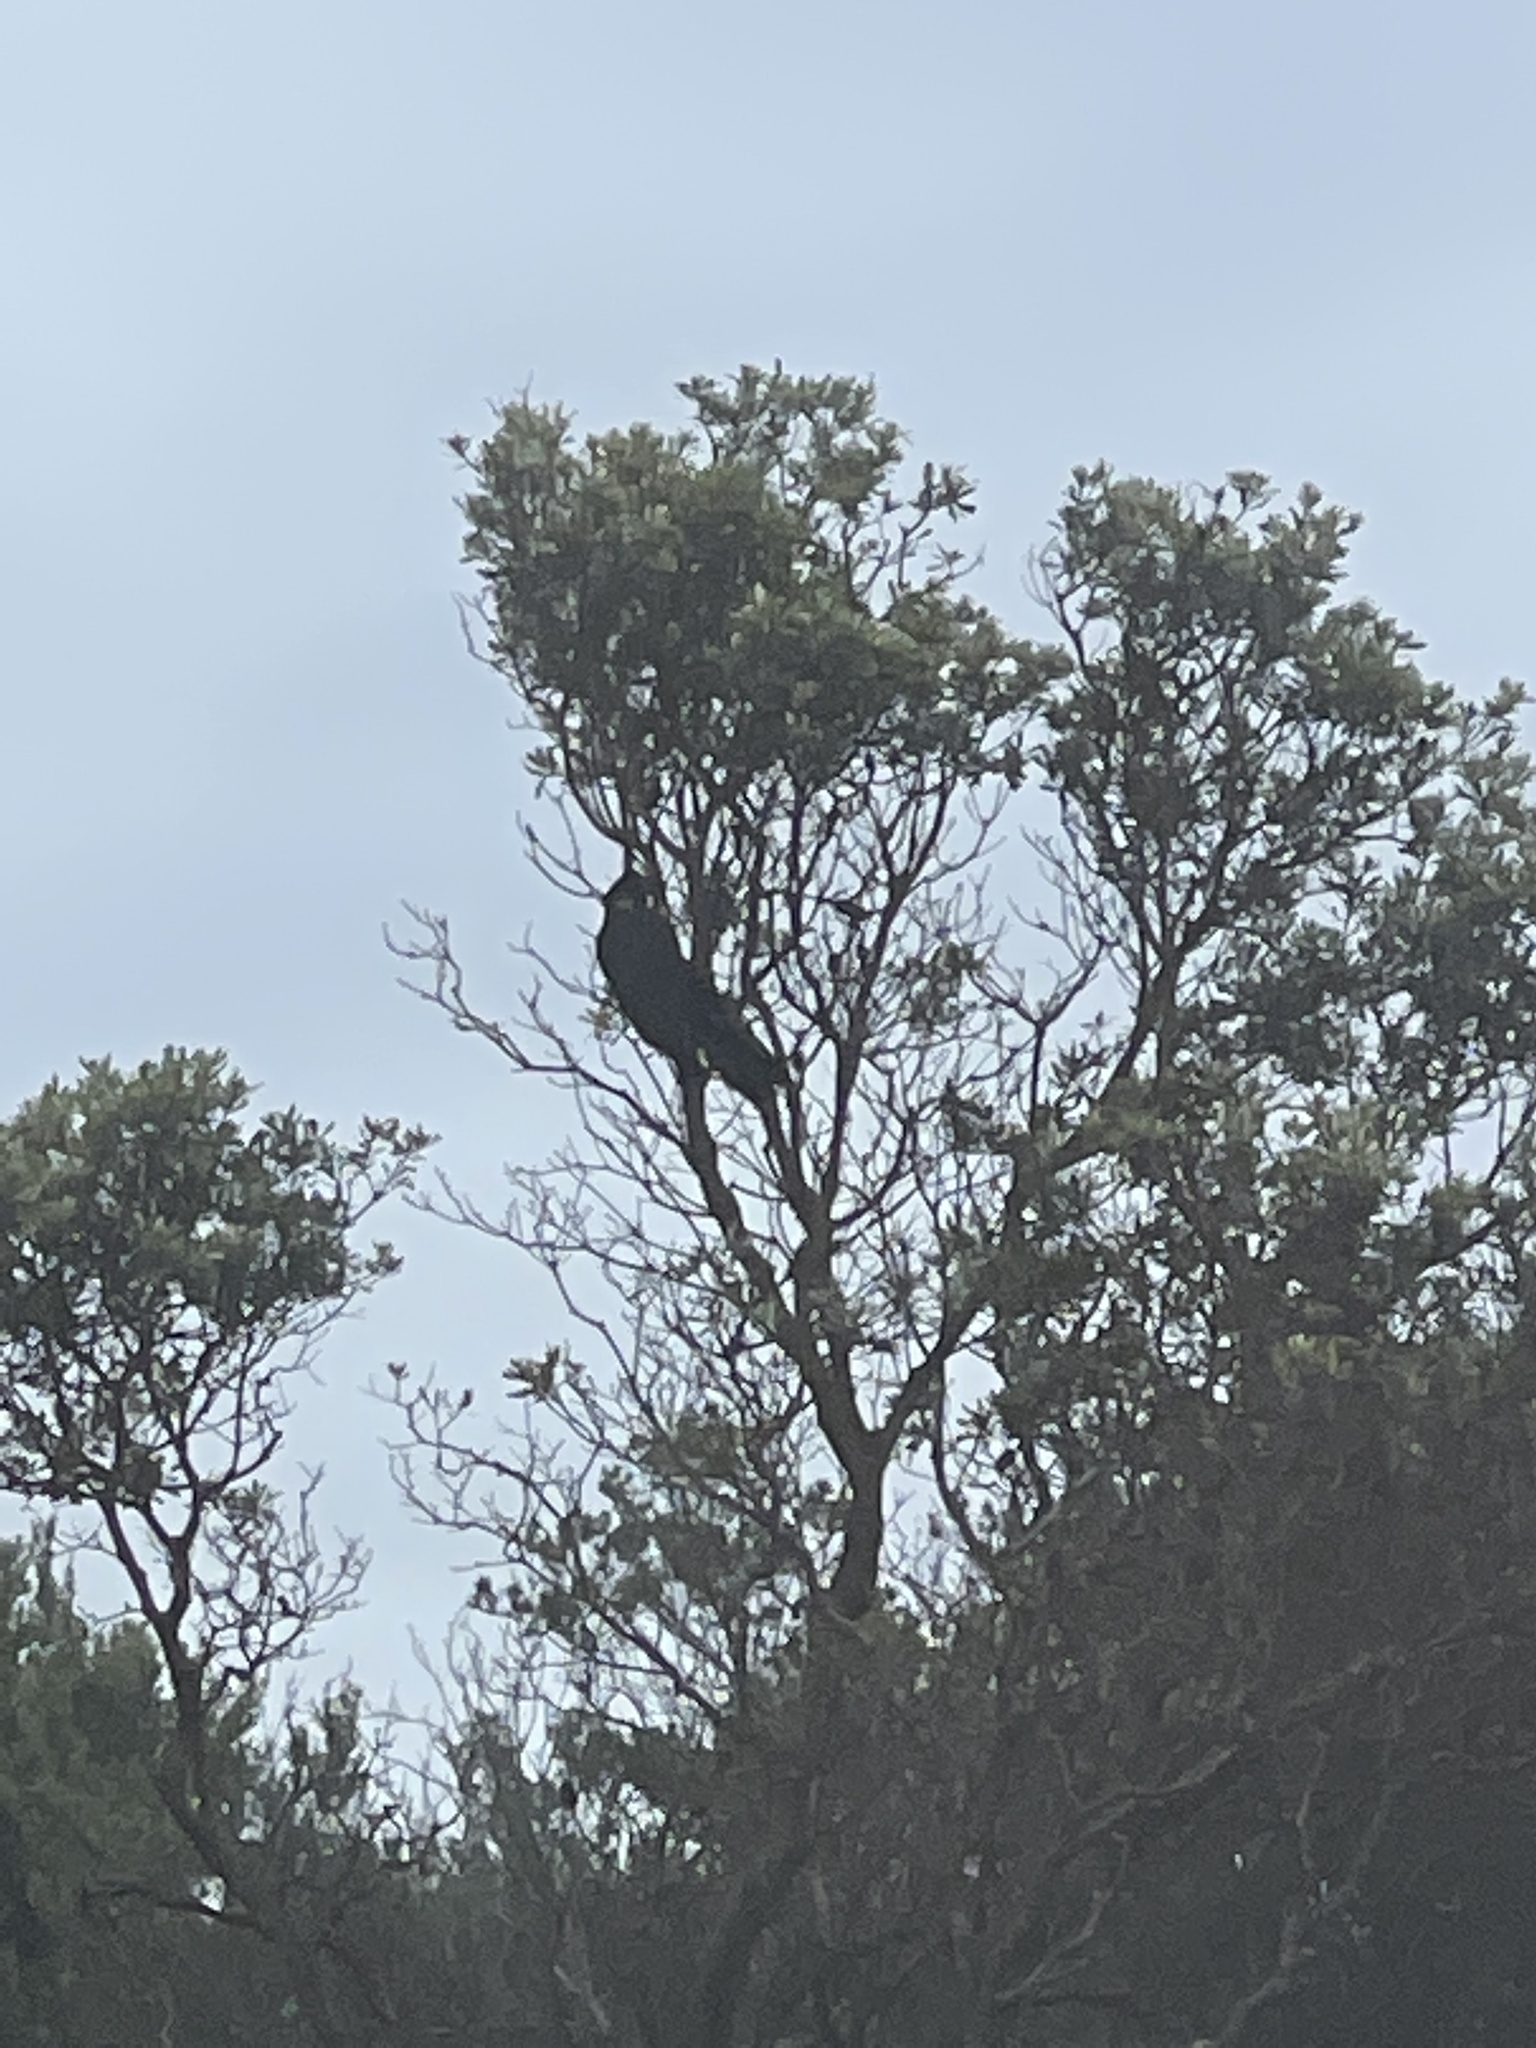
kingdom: Animalia
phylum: Chordata
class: Aves
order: Psittaciformes
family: Cacatuidae
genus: Zanda
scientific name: Zanda funerea
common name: Yellow-tailed black-cockatoo
